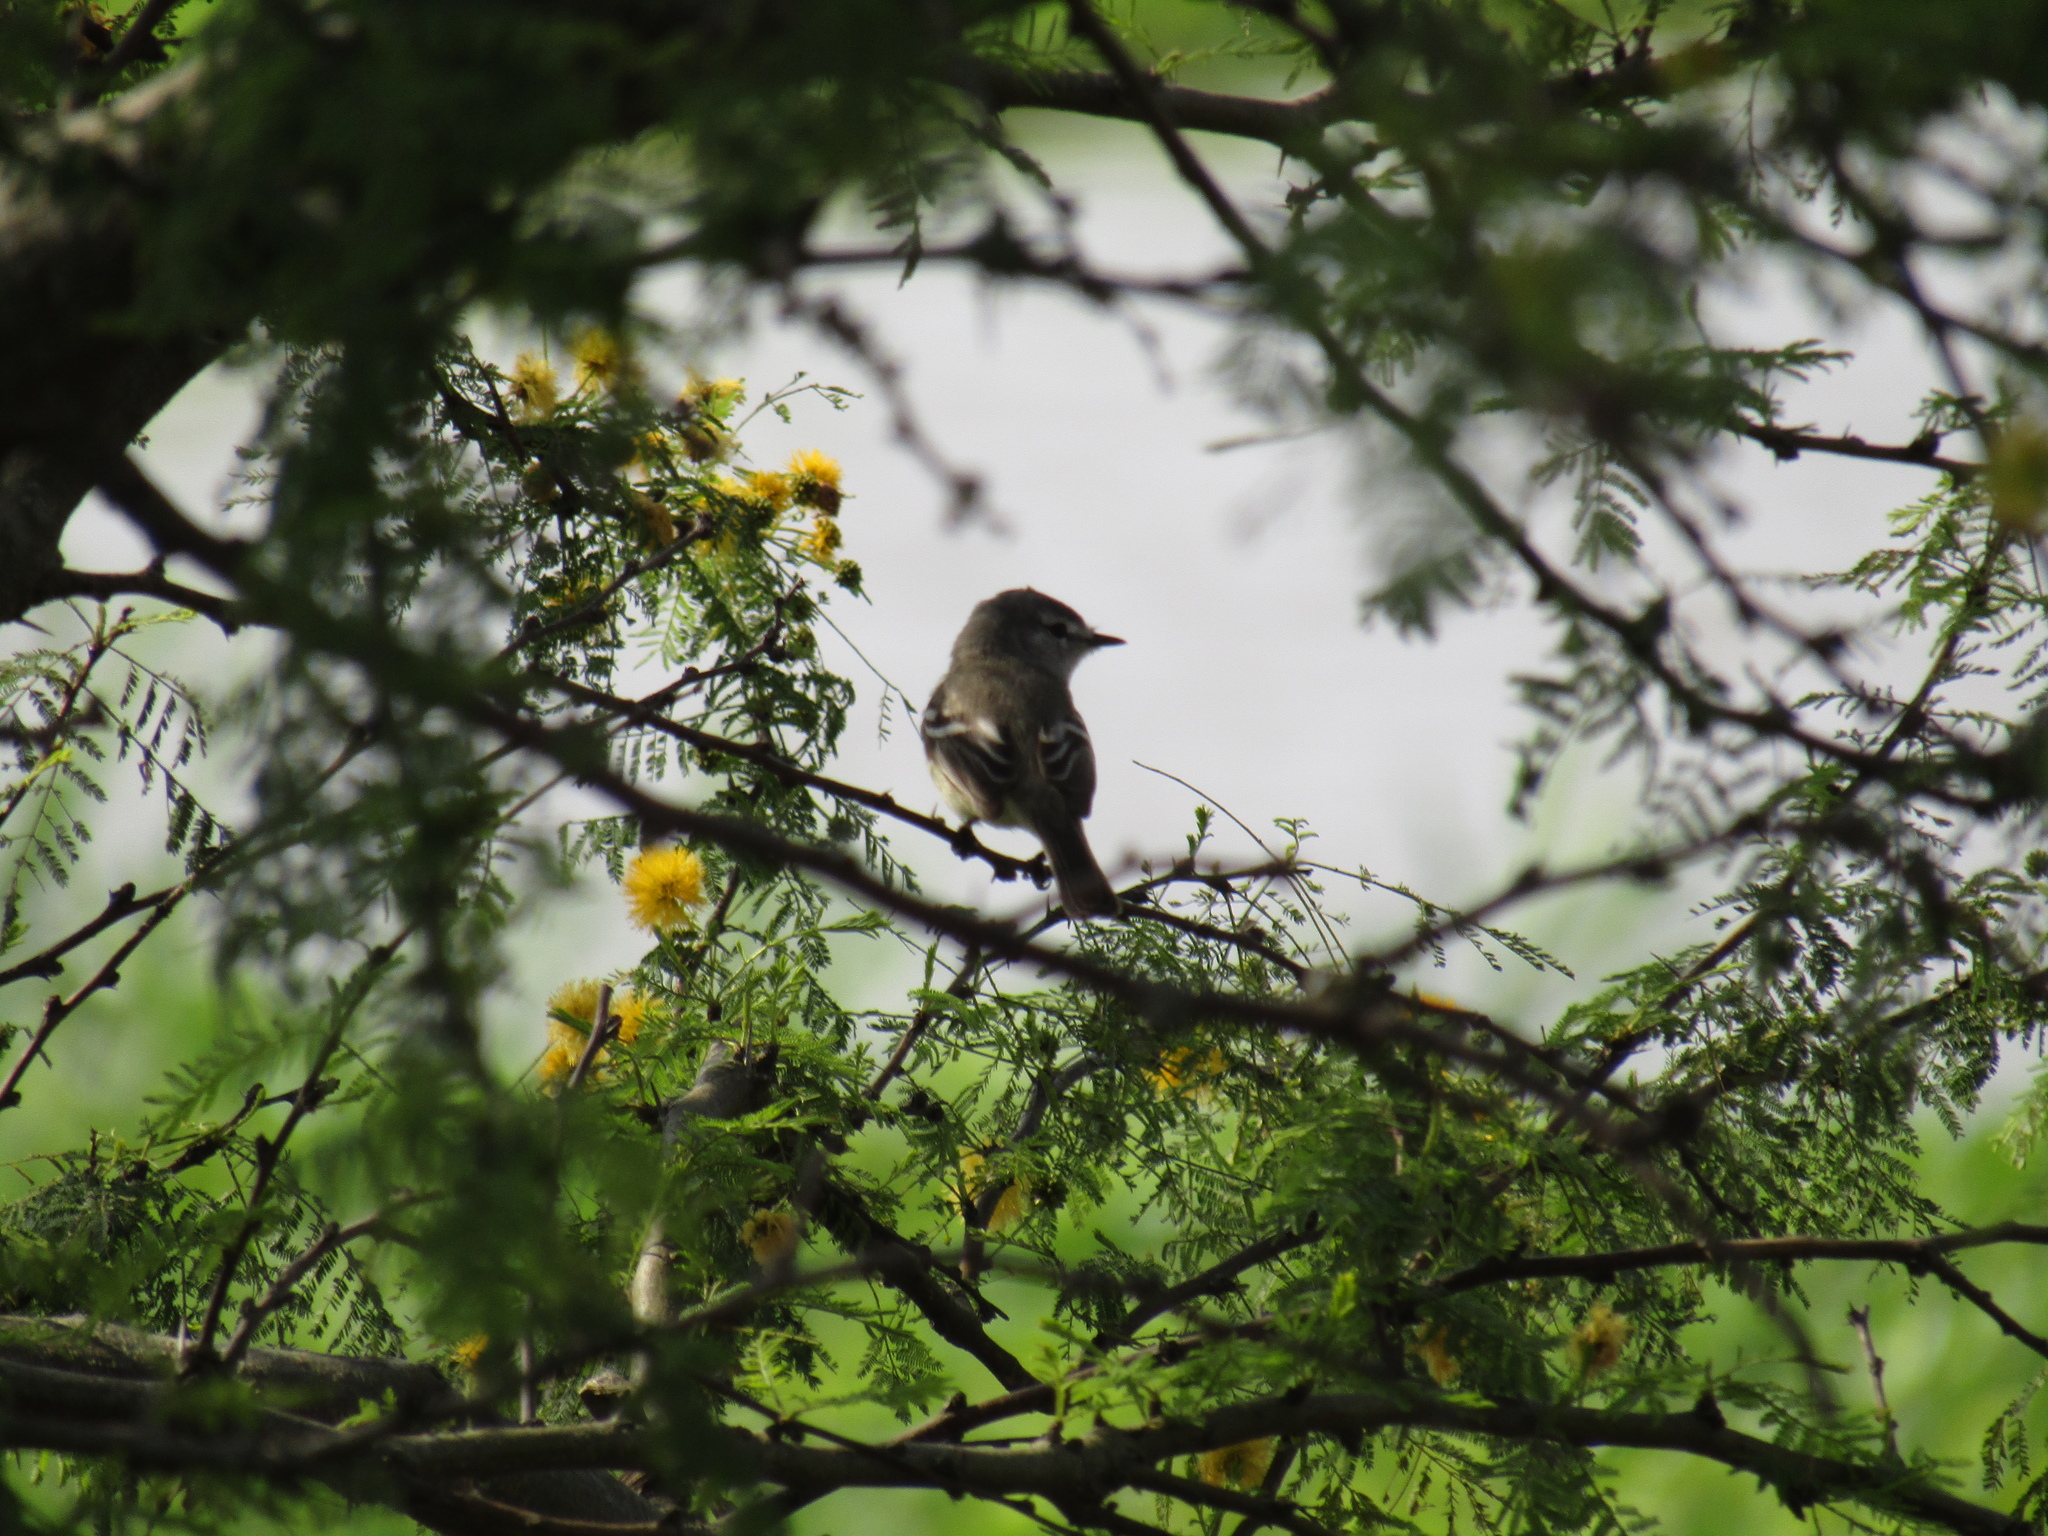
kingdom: Animalia
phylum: Chordata
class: Aves
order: Passeriformes
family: Tyrannidae
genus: Serpophaga
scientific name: Serpophaga griseicapilla
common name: Straneck's tyrannulet
